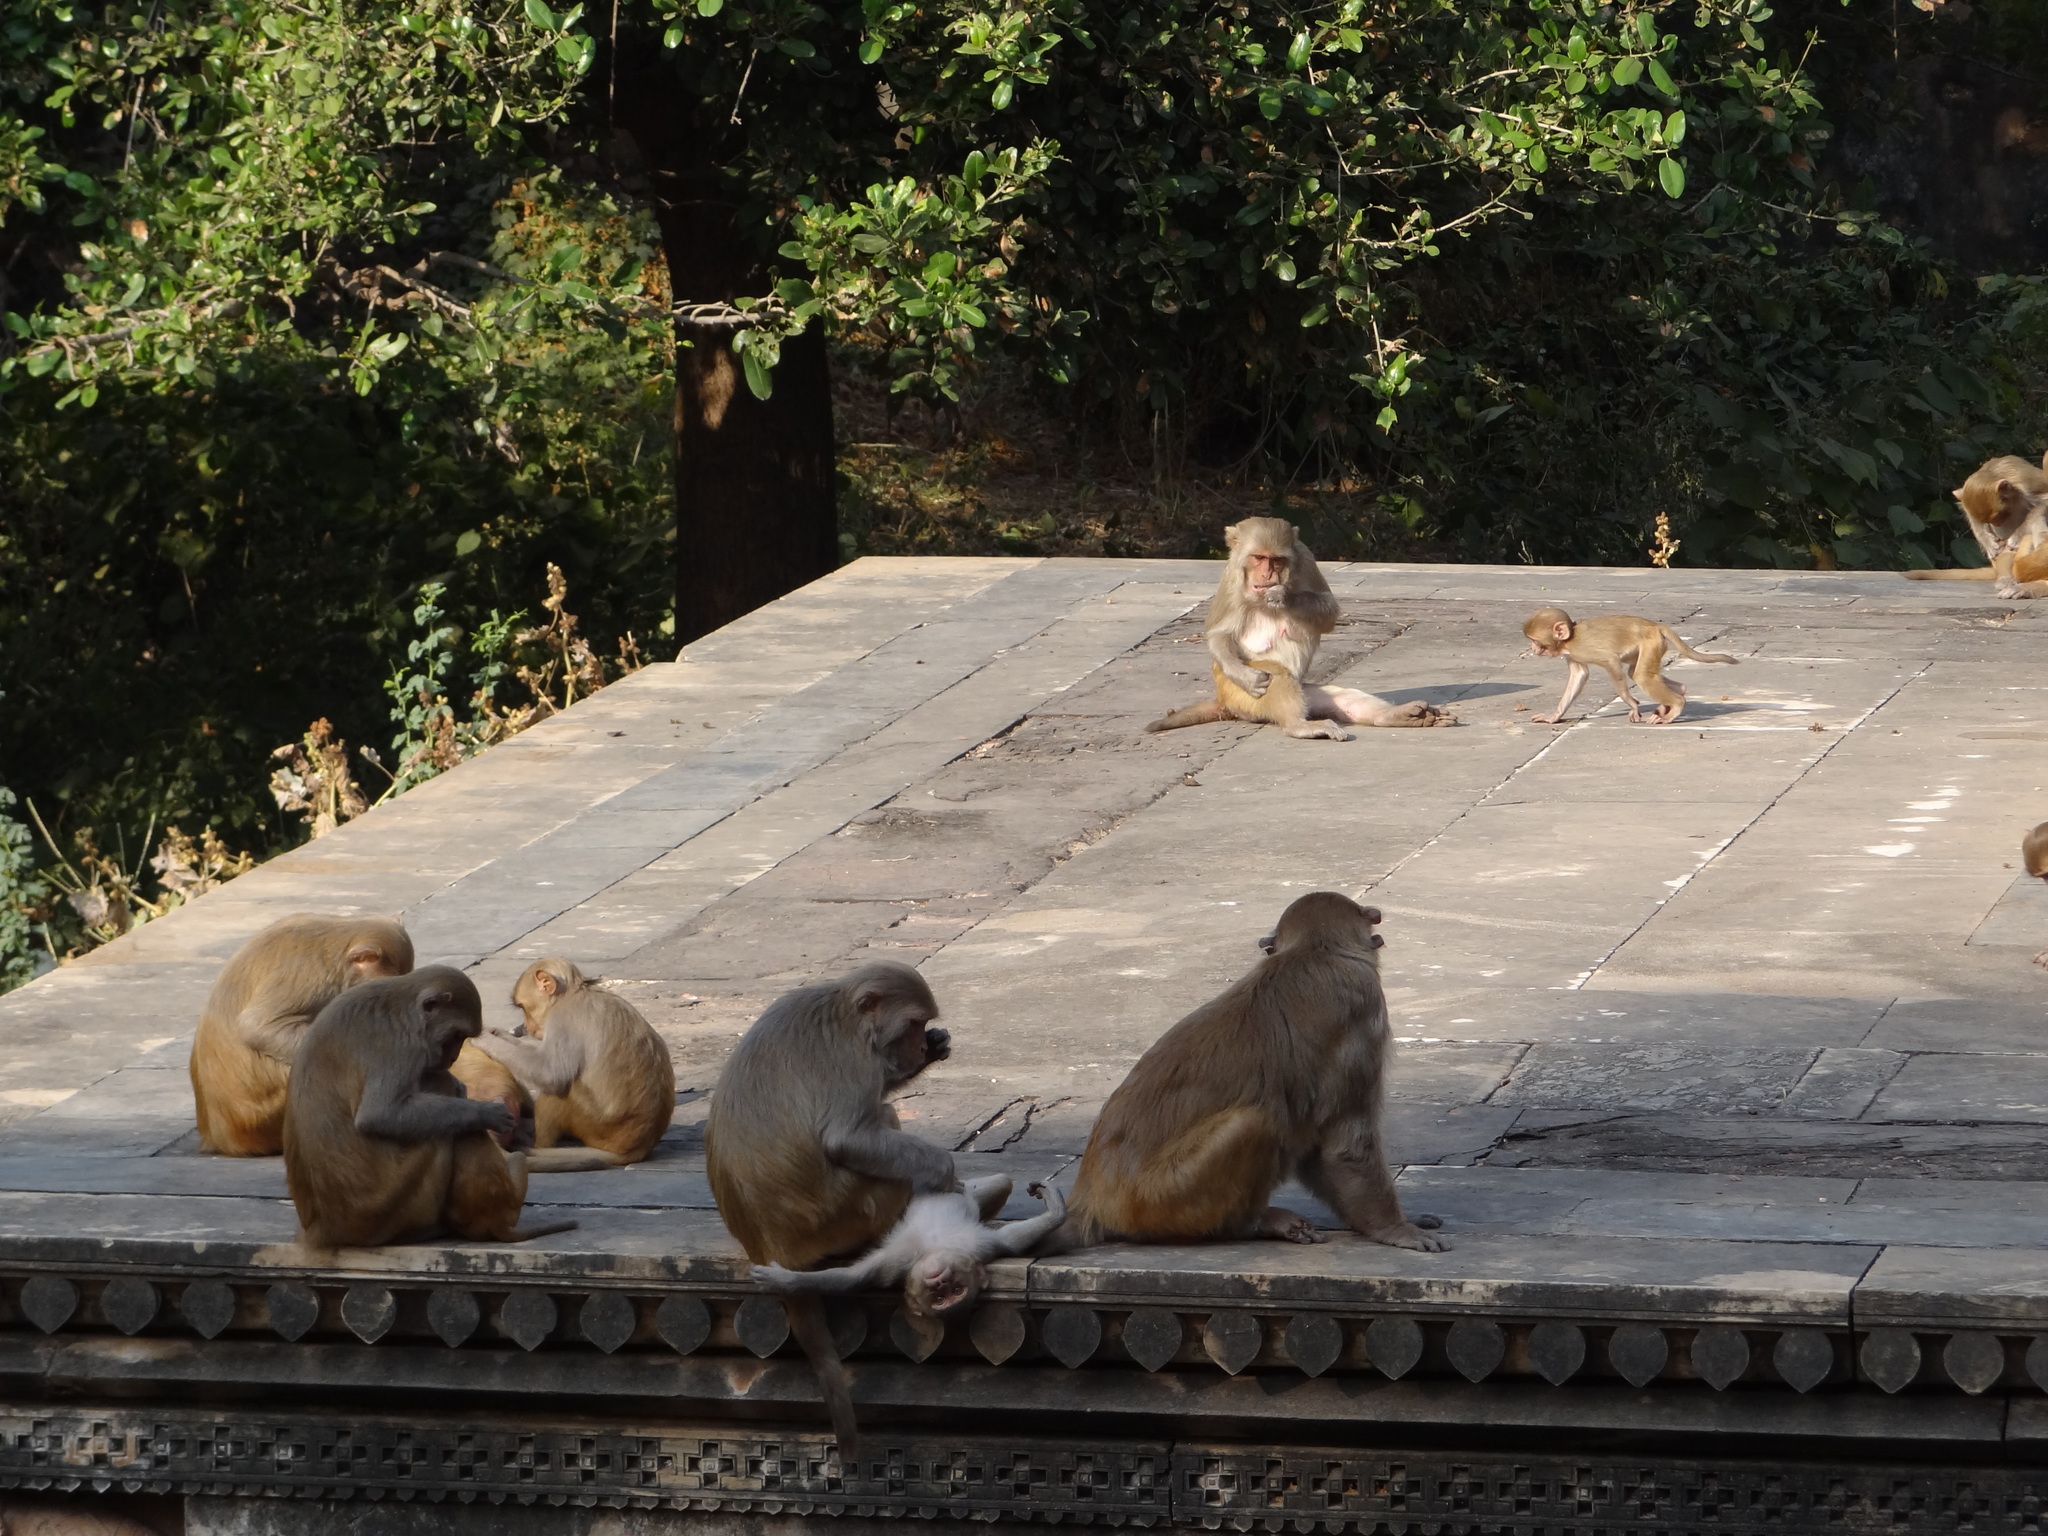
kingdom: Animalia
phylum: Chordata
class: Mammalia
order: Primates
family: Cercopithecidae
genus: Macaca
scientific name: Macaca mulatta
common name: Rhesus monkey
